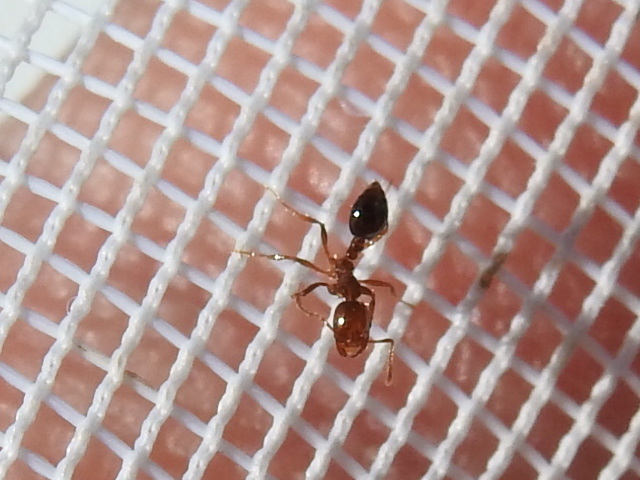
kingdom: Animalia
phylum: Arthropoda
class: Insecta
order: Hymenoptera
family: Formicidae
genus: Solenopsis
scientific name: Solenopsis invicta
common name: Red imported fire ant
